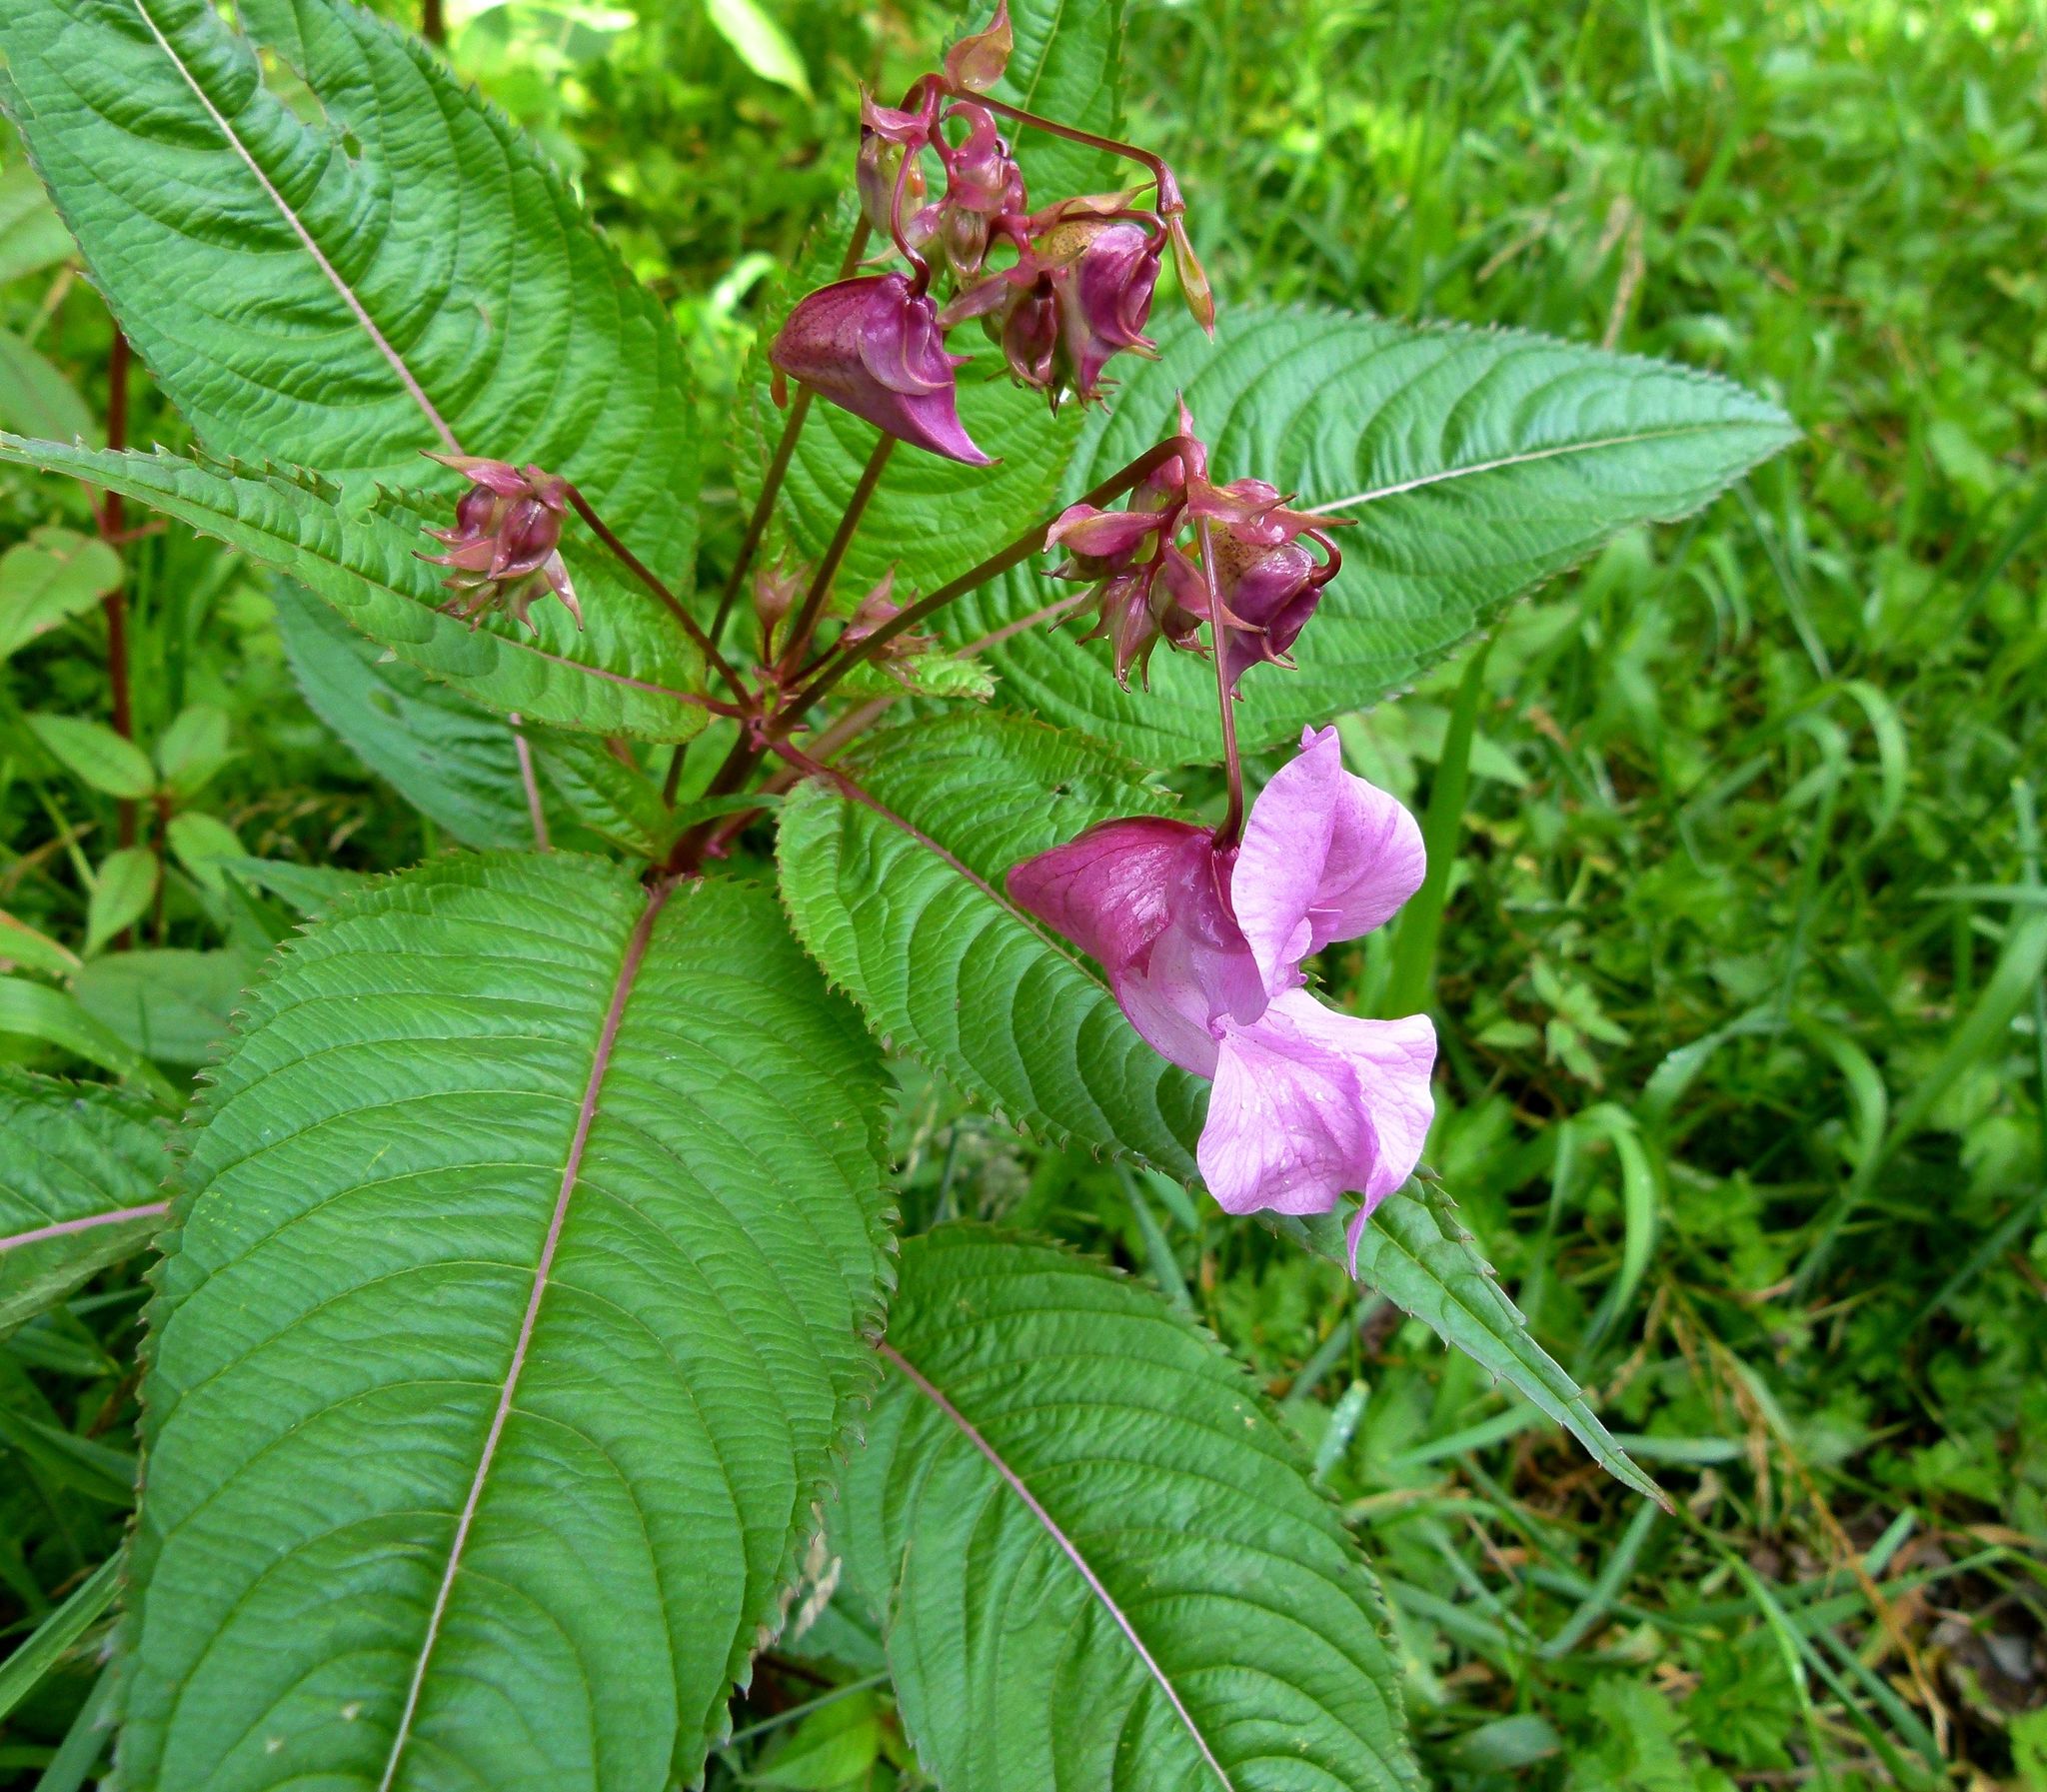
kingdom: Plantae
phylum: Tracheophyta
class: Magnoliopsida
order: Ericales
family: Balsaminaceae
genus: Impatiens
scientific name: Impatiens glandulifera
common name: Himalayan balsam
